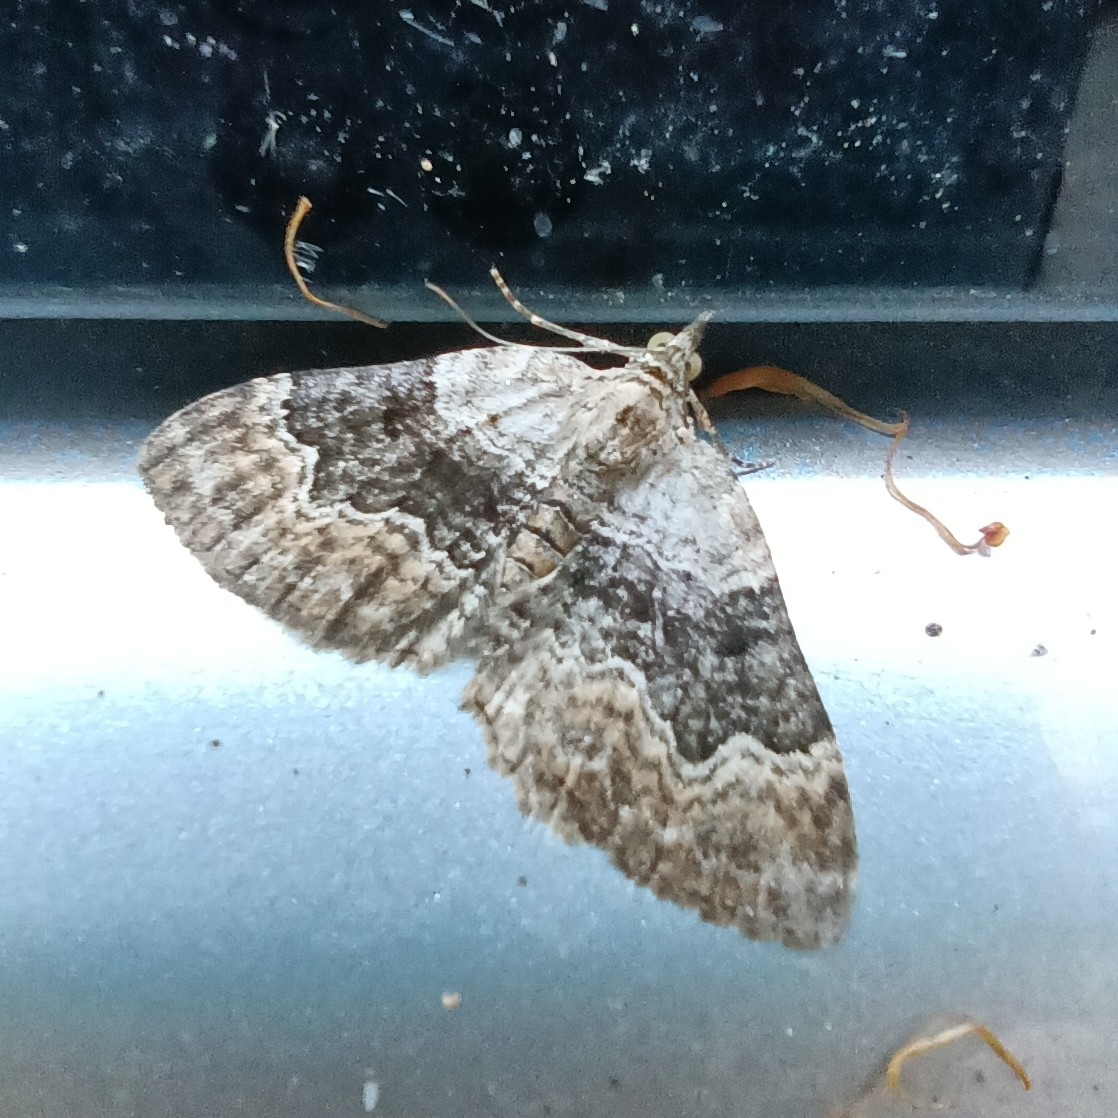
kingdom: Animalia
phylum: Arthropoda
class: Insecta
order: Lepidoptera
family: Geometridae
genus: Xanthorhoe
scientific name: Xanthorhoe quadrifasiata
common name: Large twin-spot carpet
